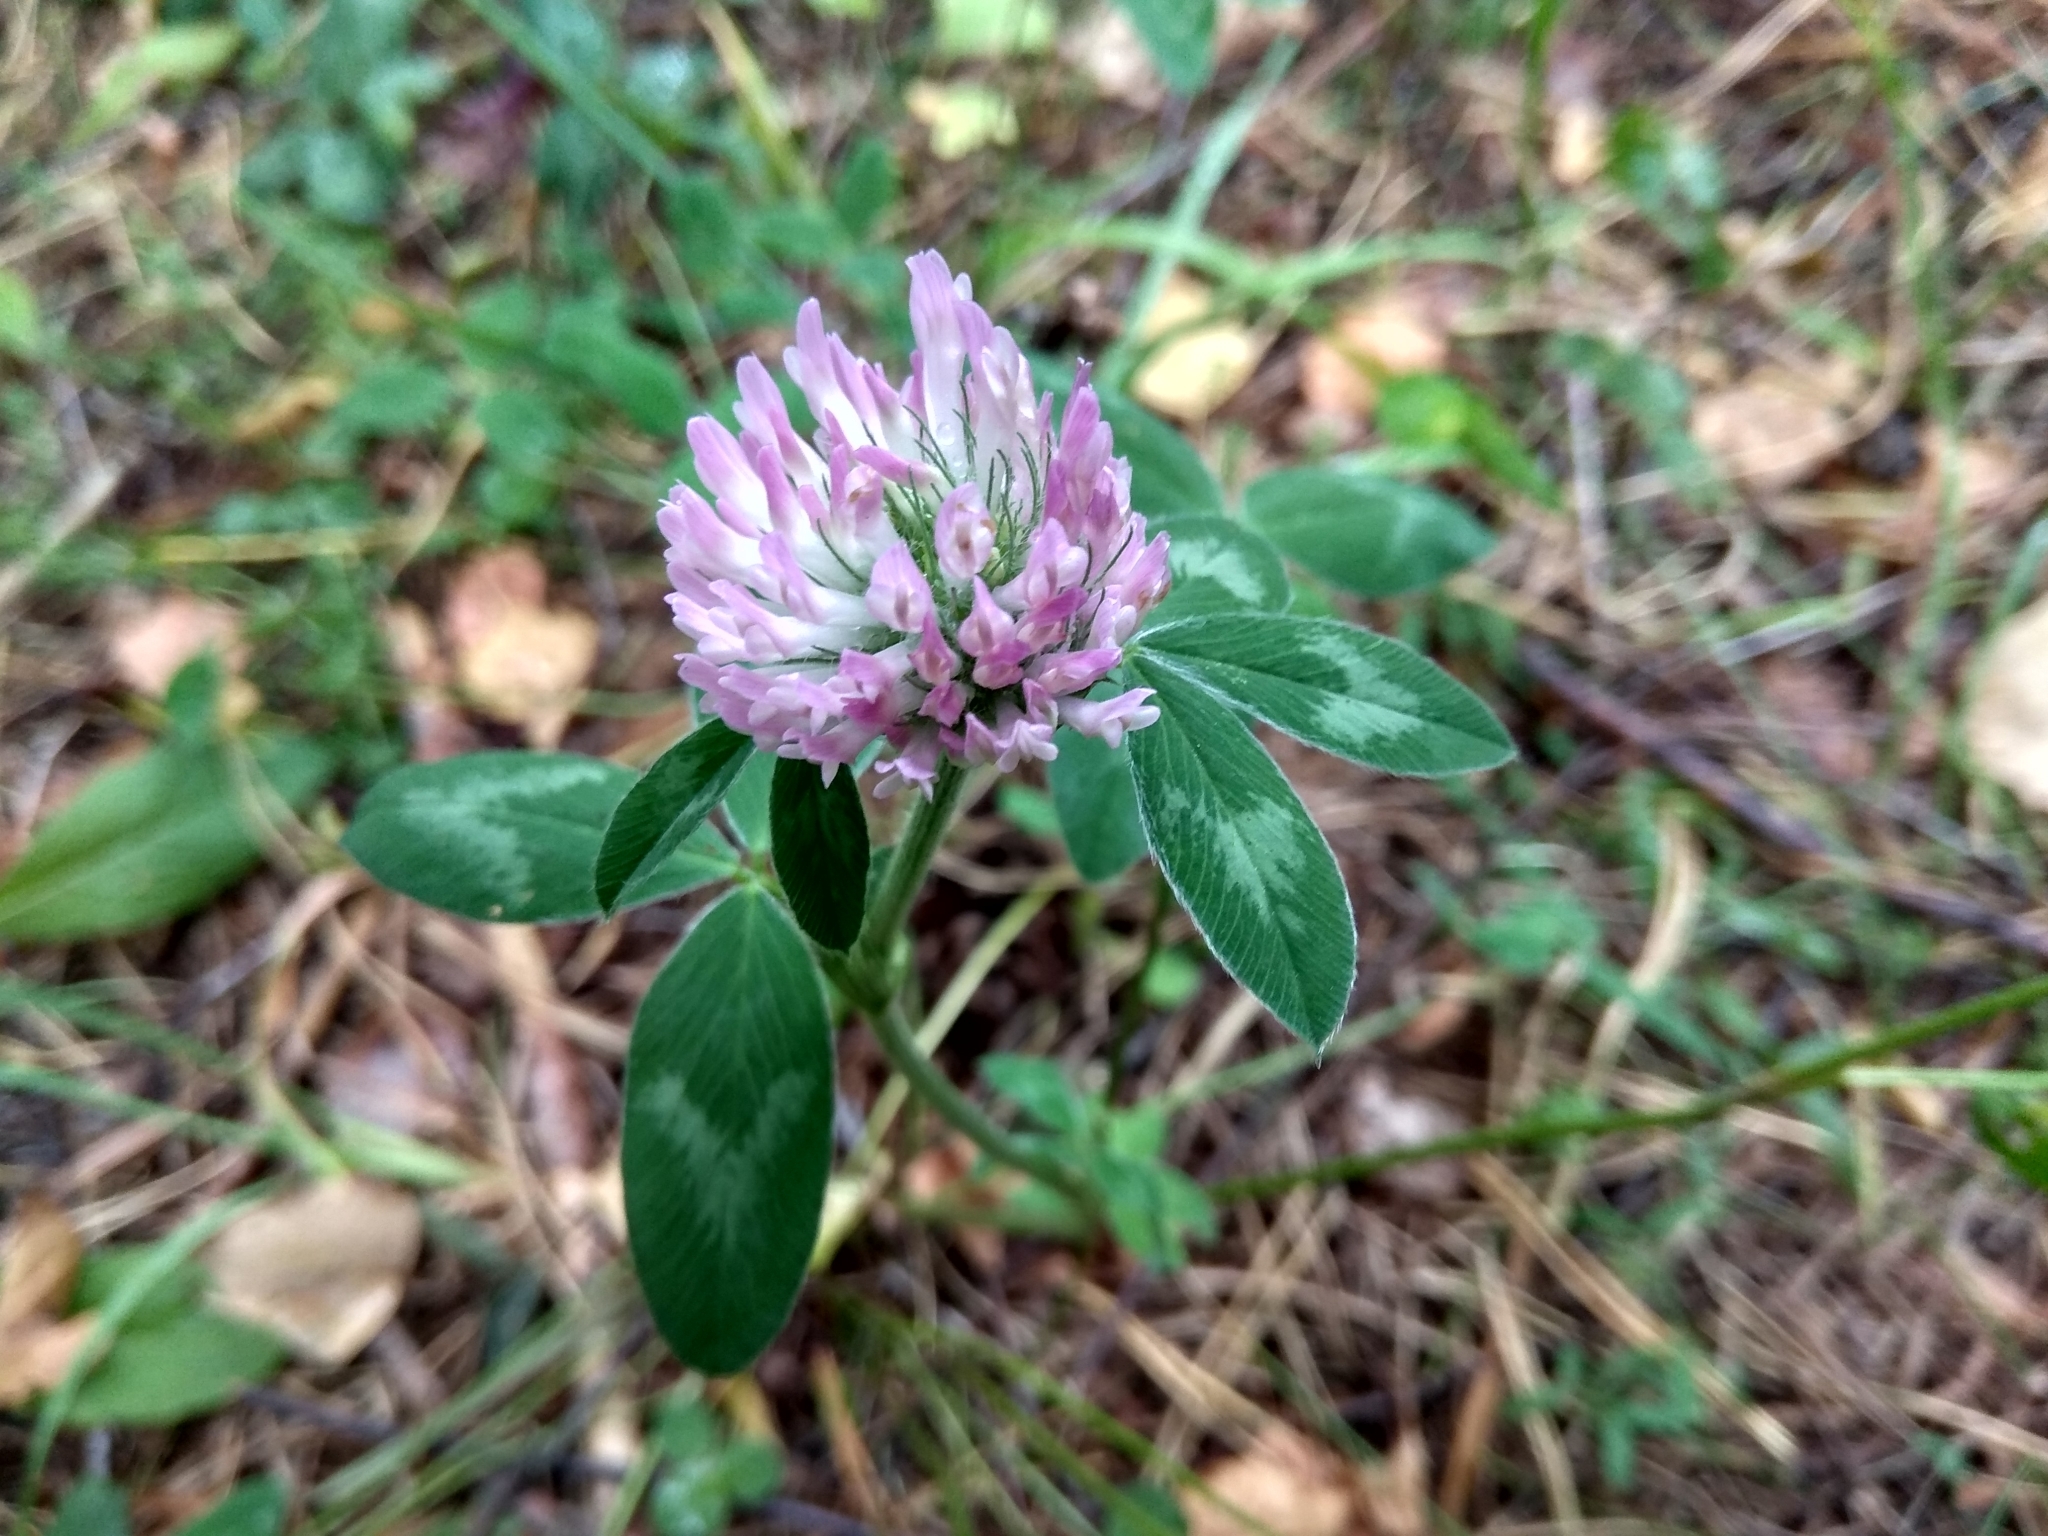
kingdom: Plantae
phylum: Tracheophyta
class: Magnoliopsida
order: Fabales
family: Fabaceae
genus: Trifolium
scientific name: Trifolium pratense
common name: Red clover
